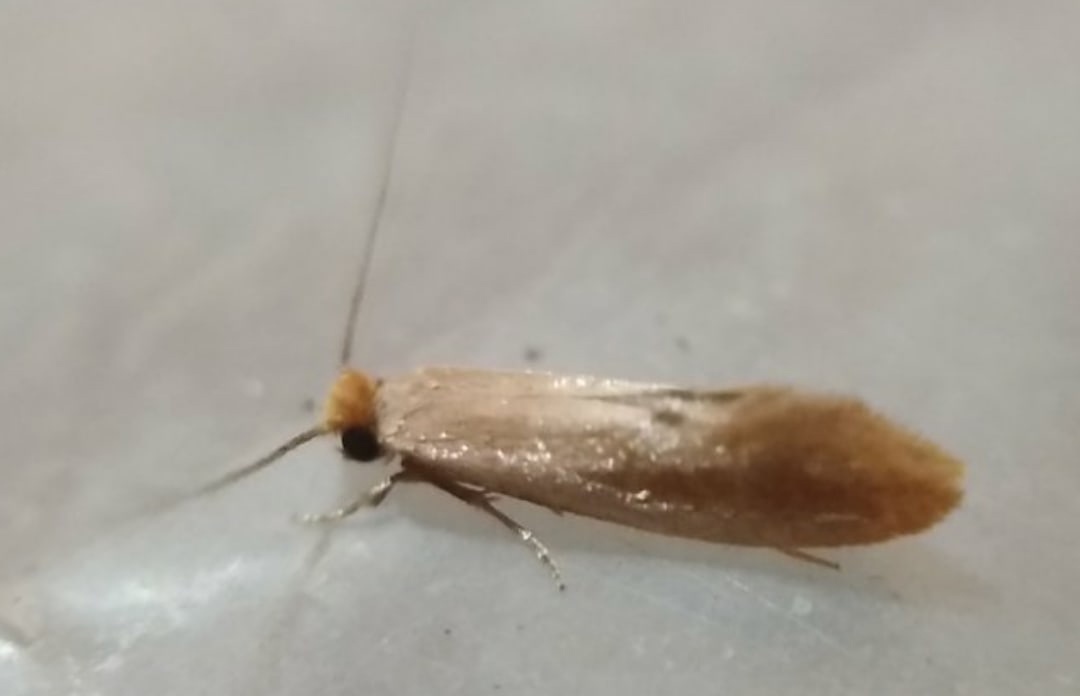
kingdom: Animalia
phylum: Arthropoda
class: Insecta
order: Lepidoptera
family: Tineidae
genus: Tinea
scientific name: Tinea semifulvella
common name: Fulvous clothes
